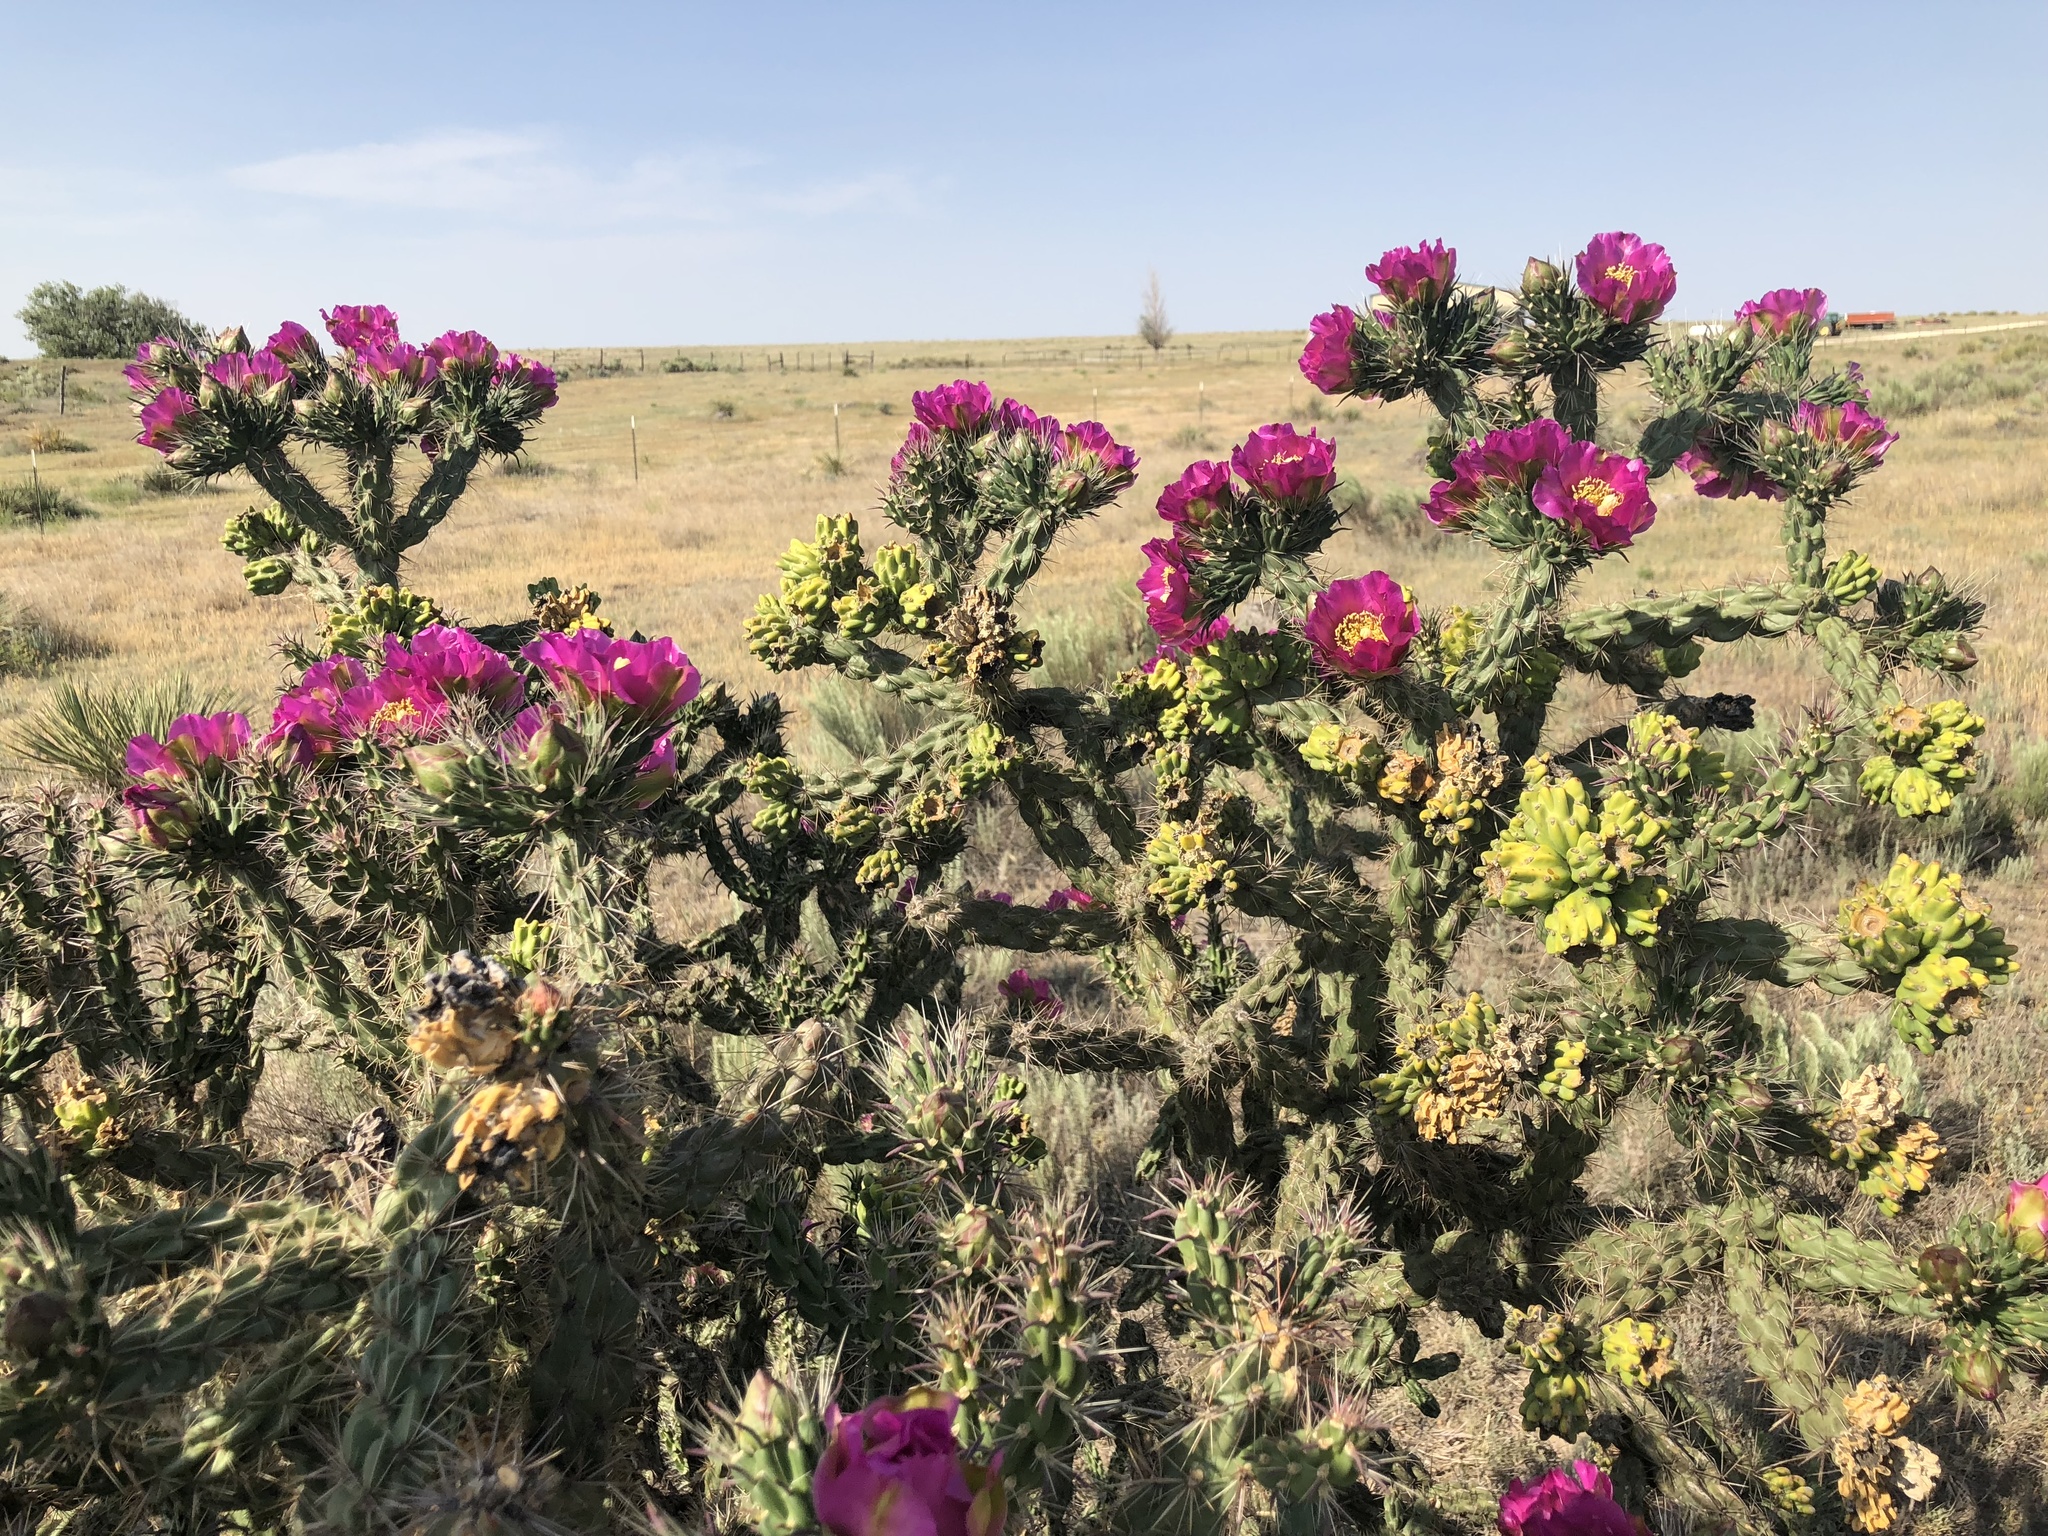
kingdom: Plantae
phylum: Tracheophyta
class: Magnoliopsida
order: Caryophyllales
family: Cactaceae
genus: Cylindropuntia
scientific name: Cylindropuntia imbricata
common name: Candelabrum cactus
